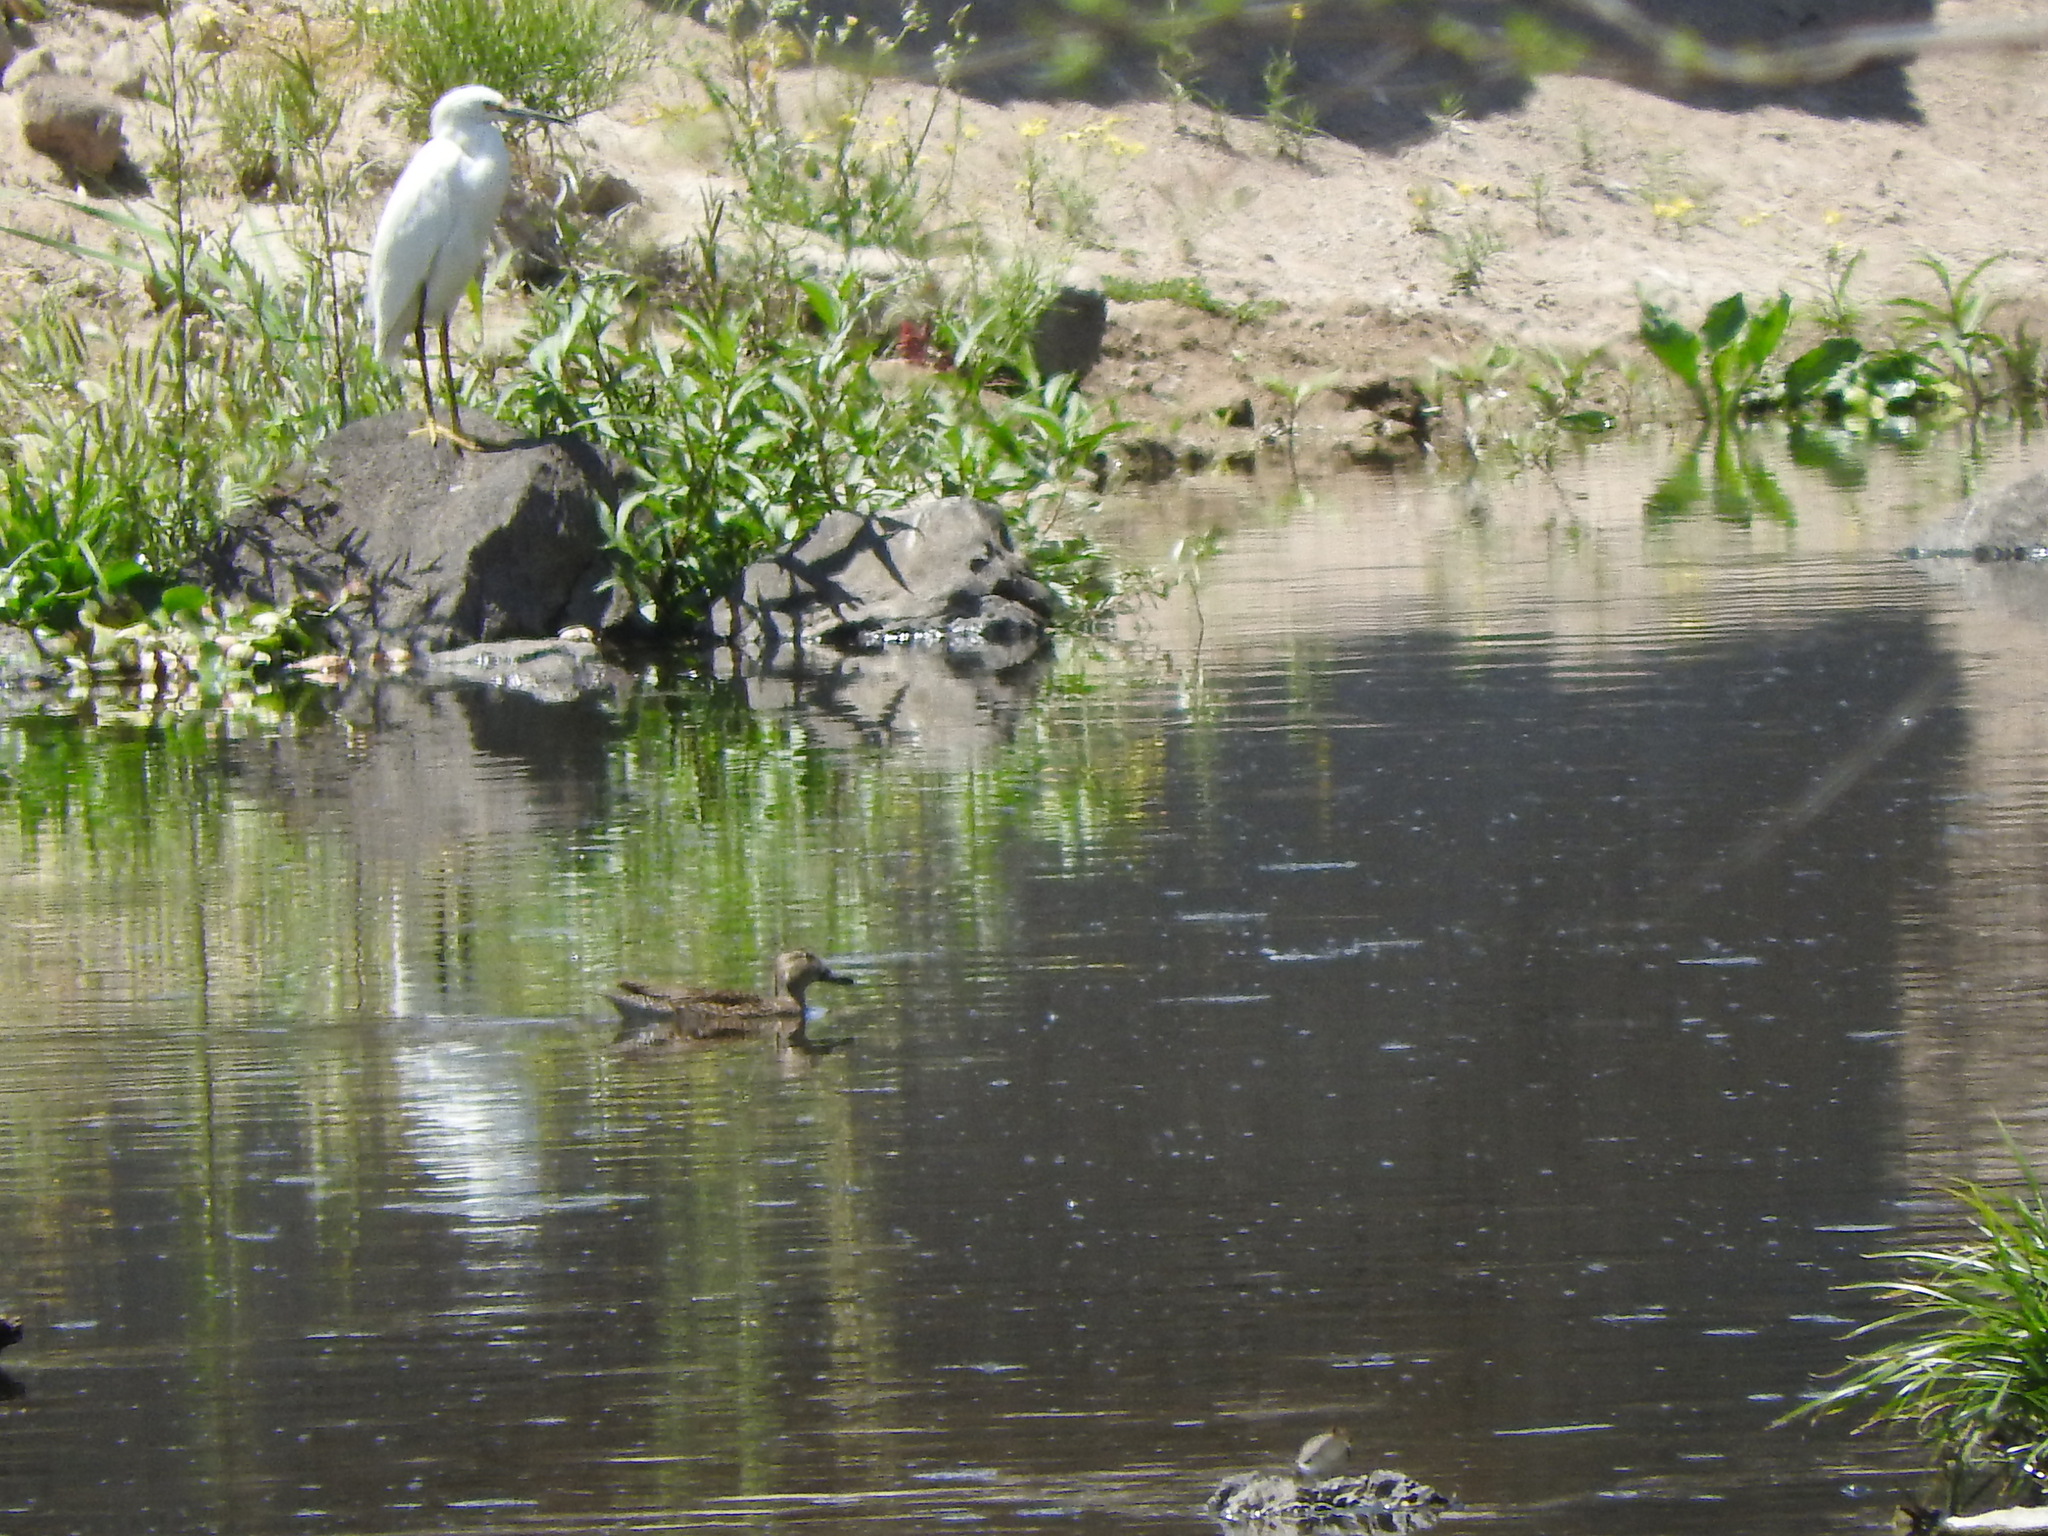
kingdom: Animalia
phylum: Chordata
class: Aves
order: Pelecaniformes
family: Ardeidae
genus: Egretta
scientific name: Egretta thula
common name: Snowy egret
